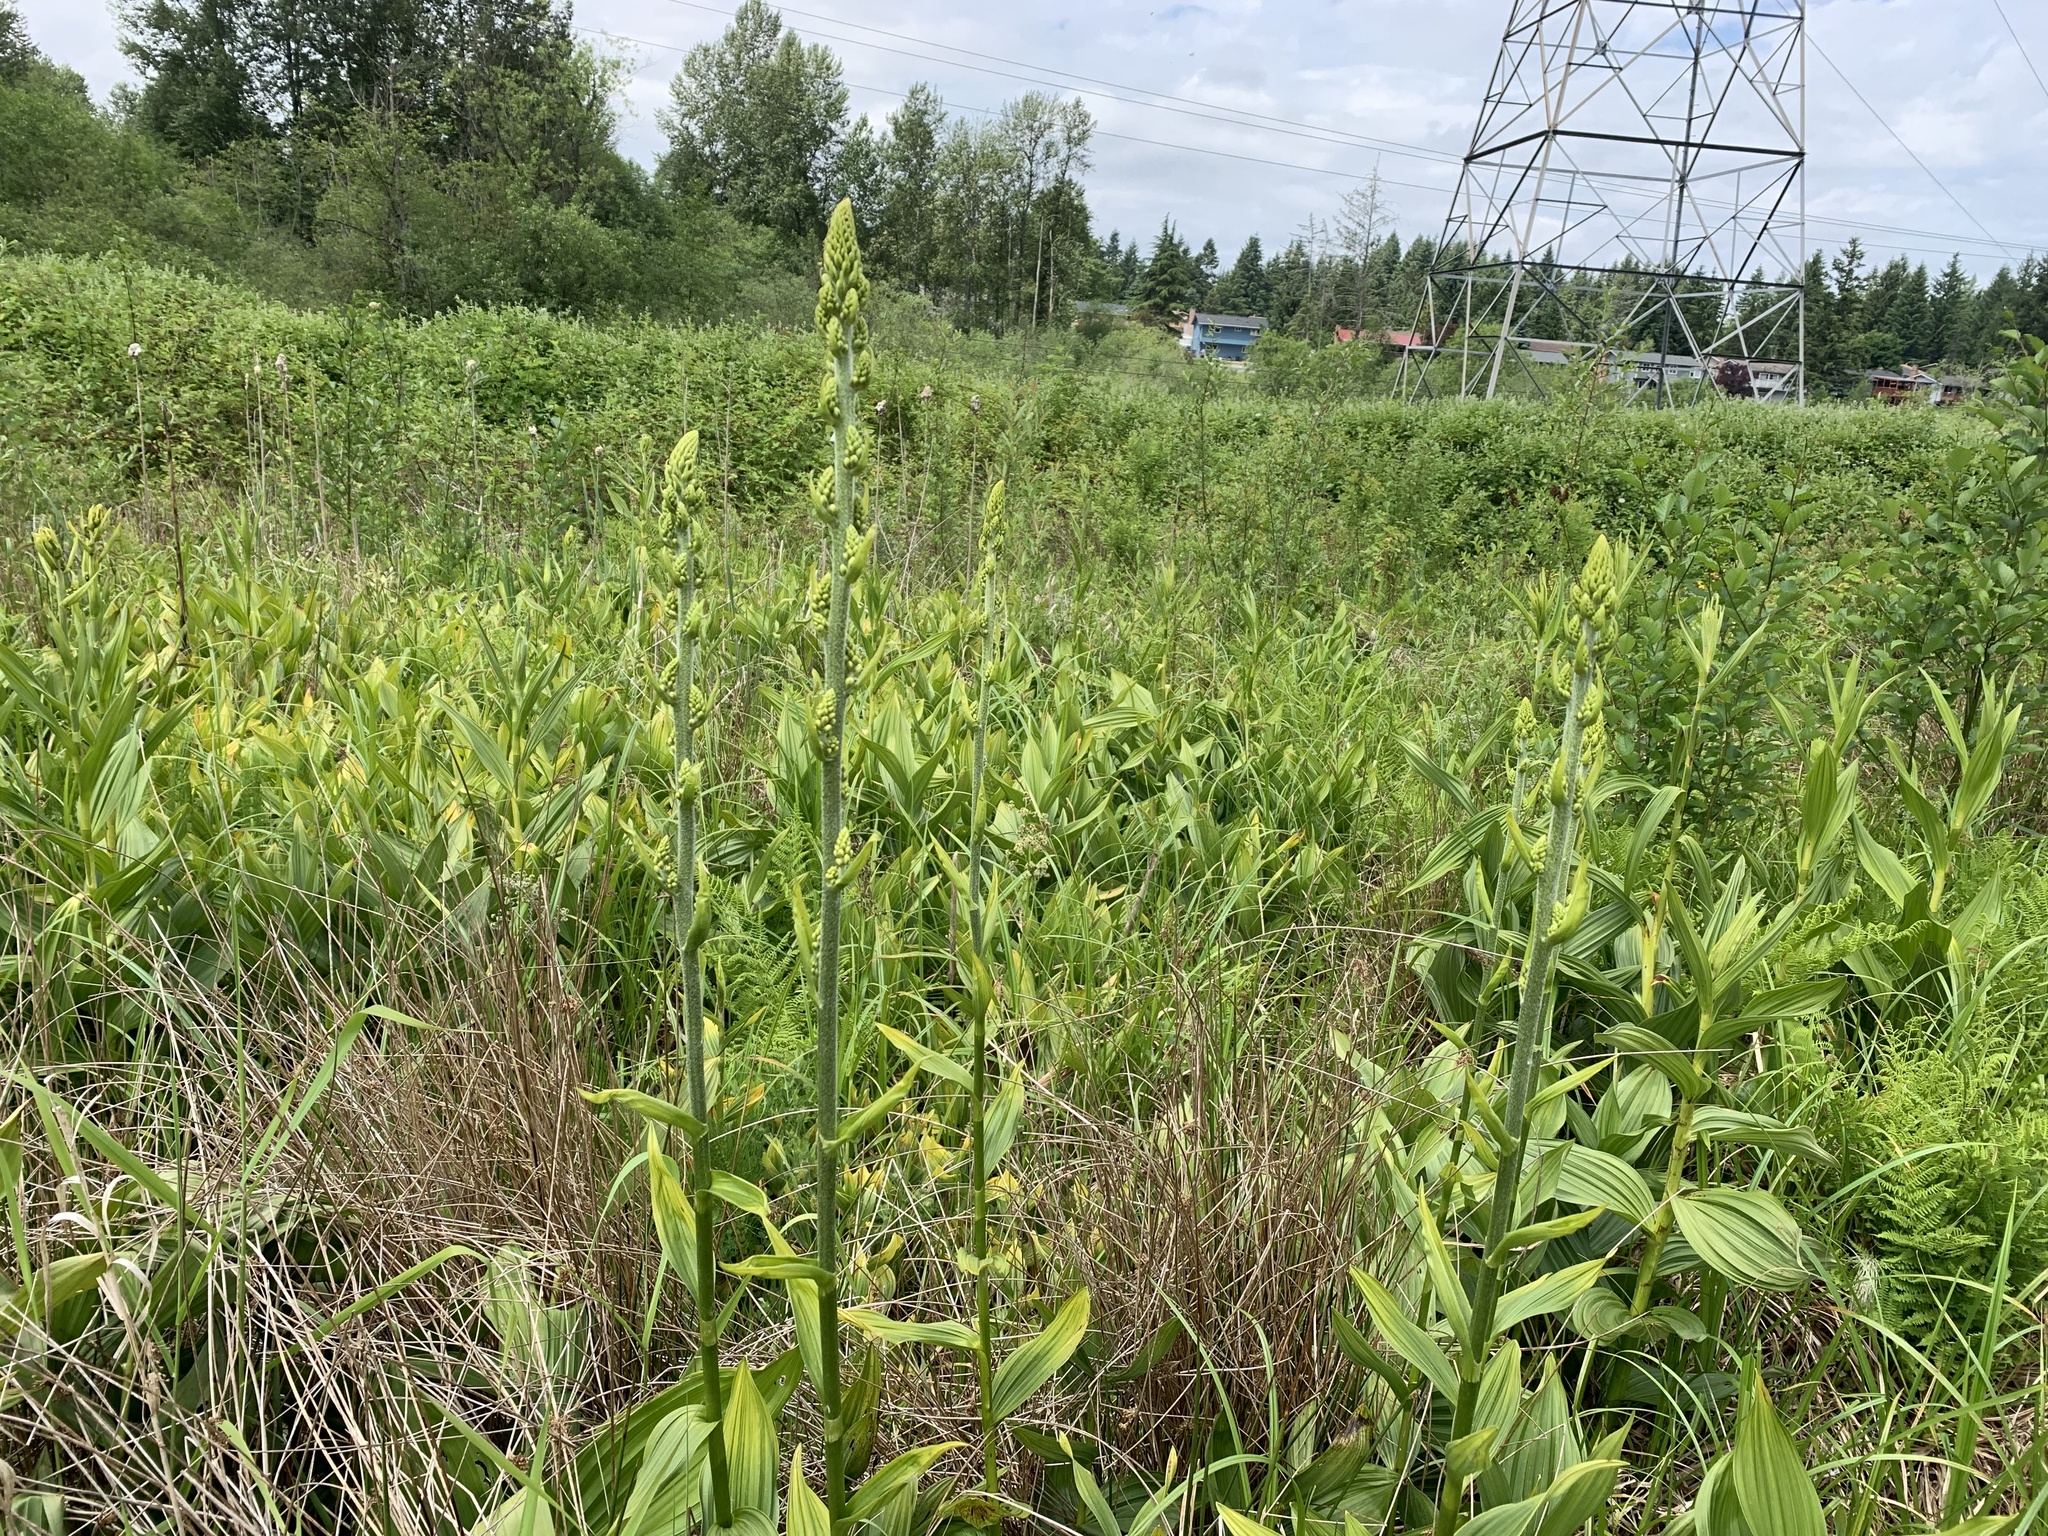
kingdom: Plantae
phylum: Tracheophyta
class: Liliopsida
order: Liliales
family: Melanthiaceae
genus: Veratrum
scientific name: Veratrum californicum
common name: California veratrum
